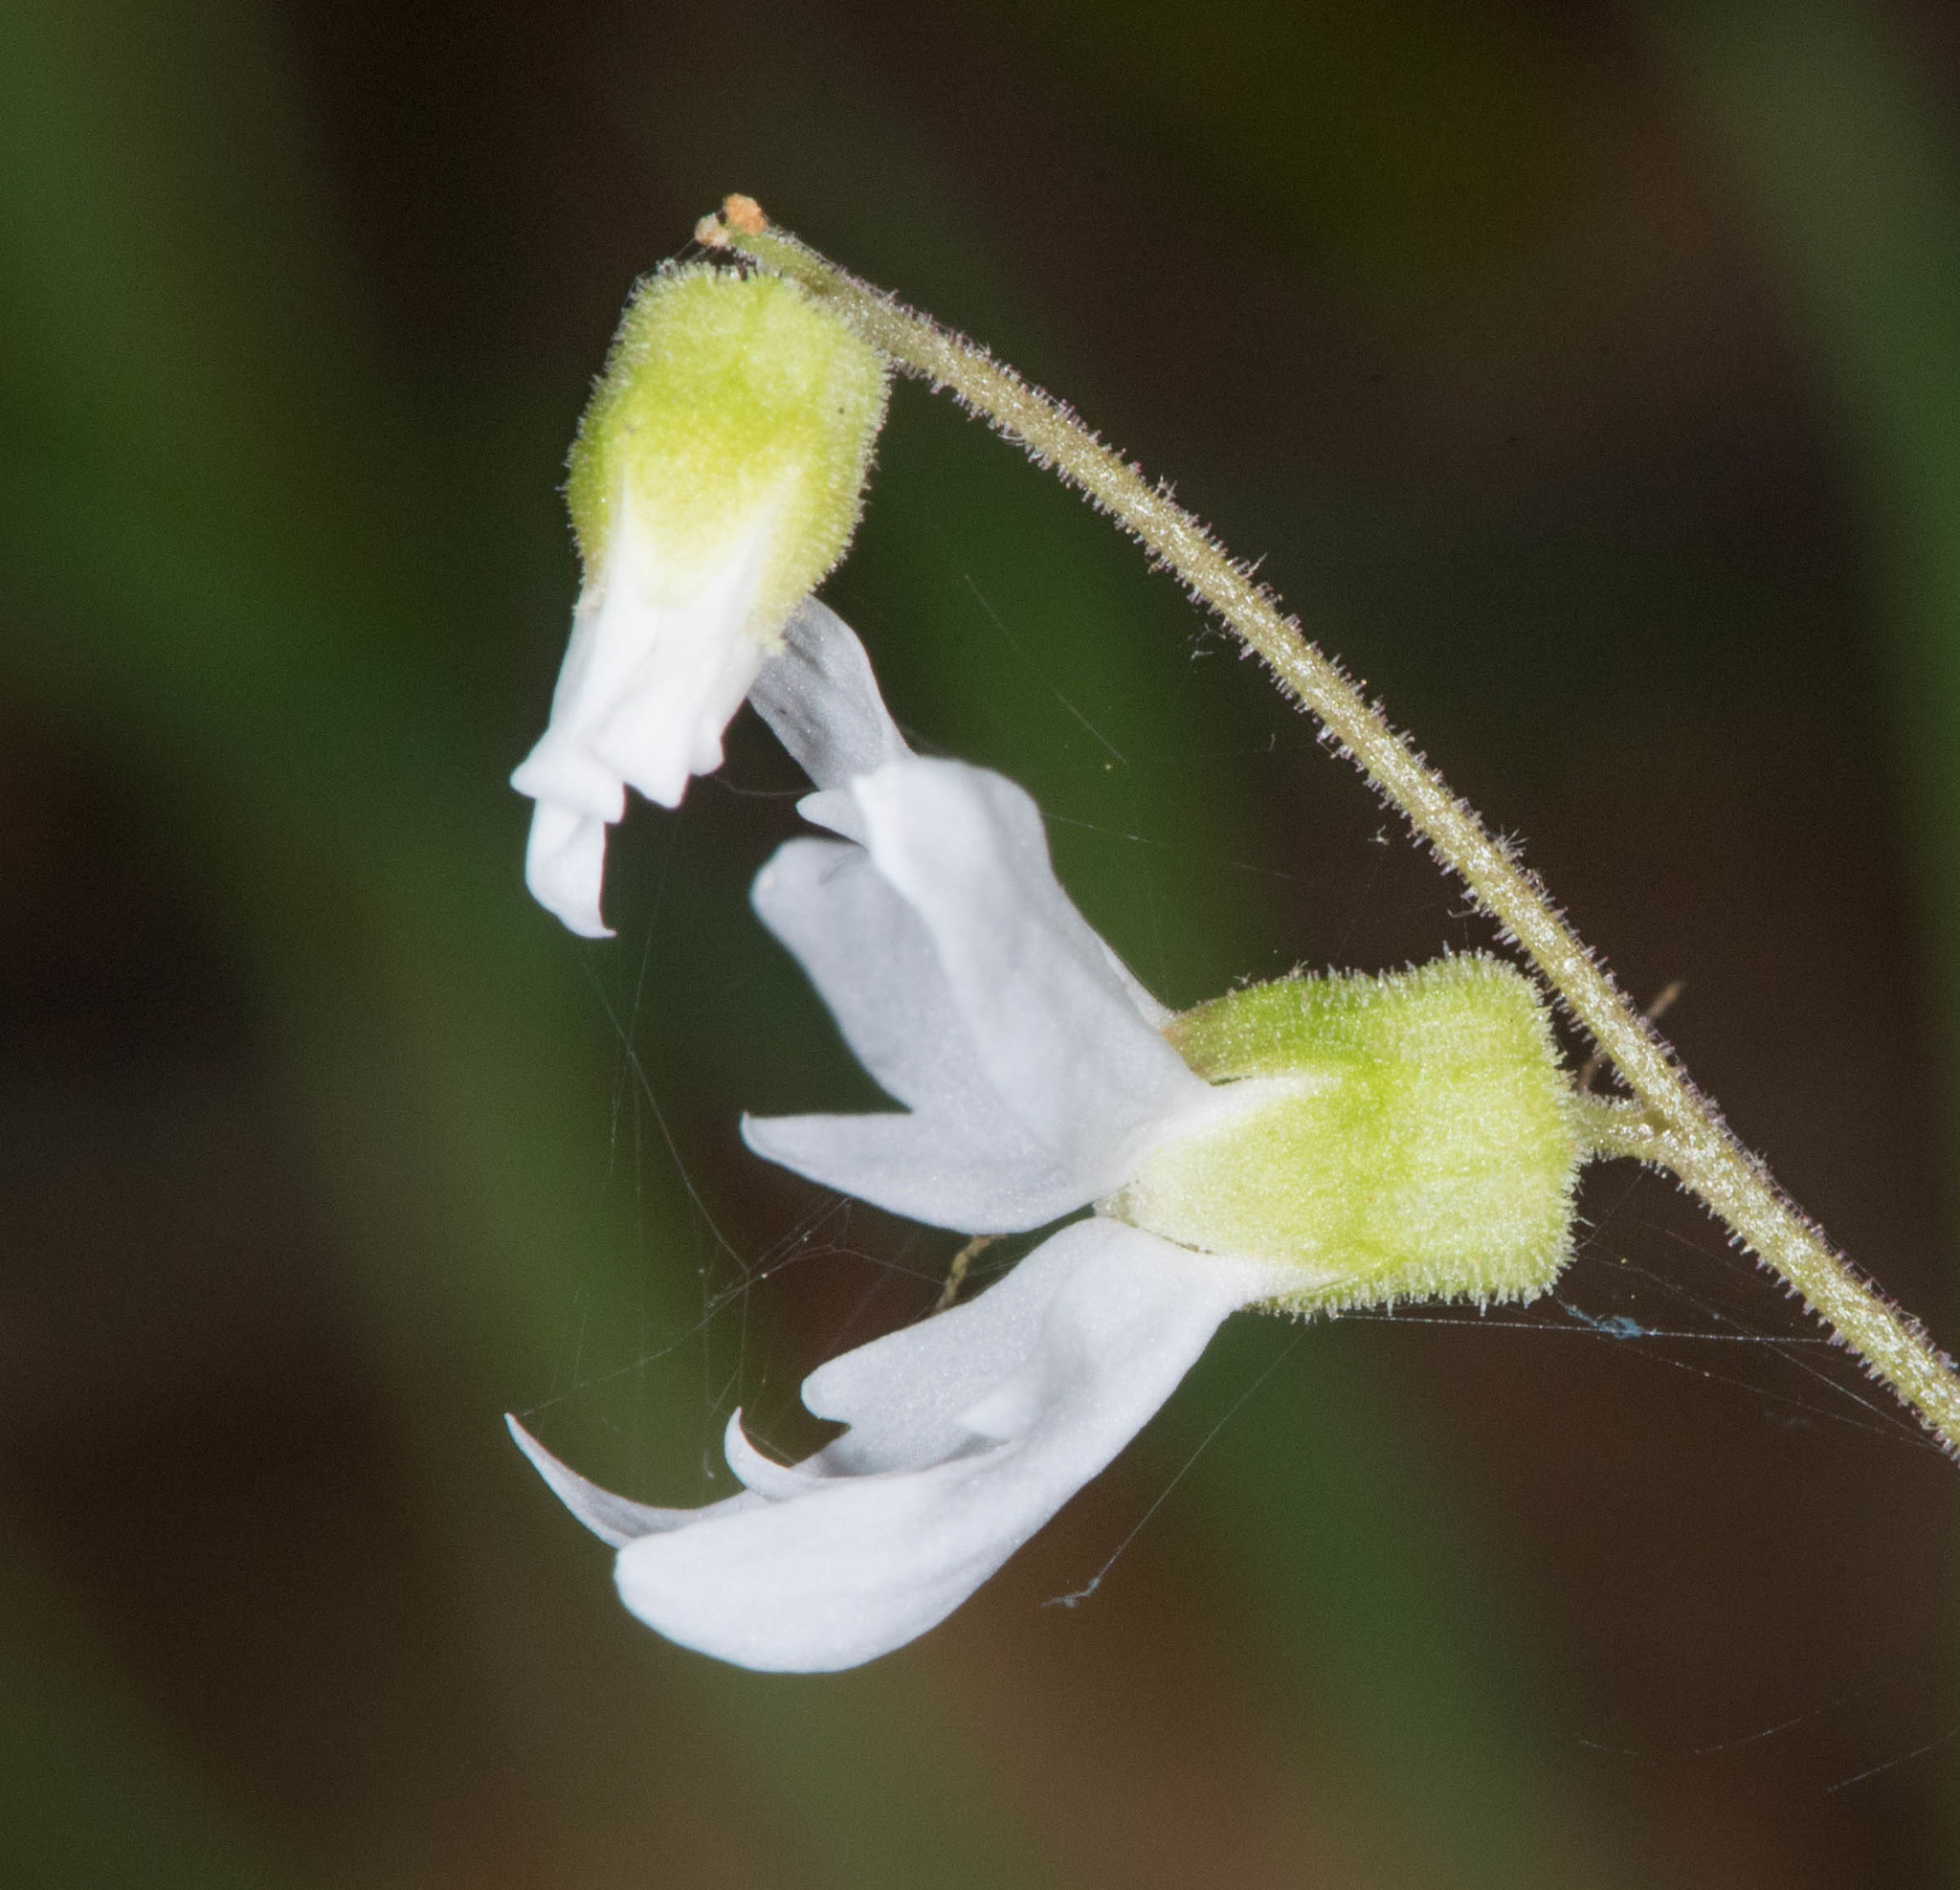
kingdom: Plantae
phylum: Tracheophyta
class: Magnoliopsida
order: Saxifragales
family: Saxifragaceae
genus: Lithophragma
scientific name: Lithophragma heterophyllum
